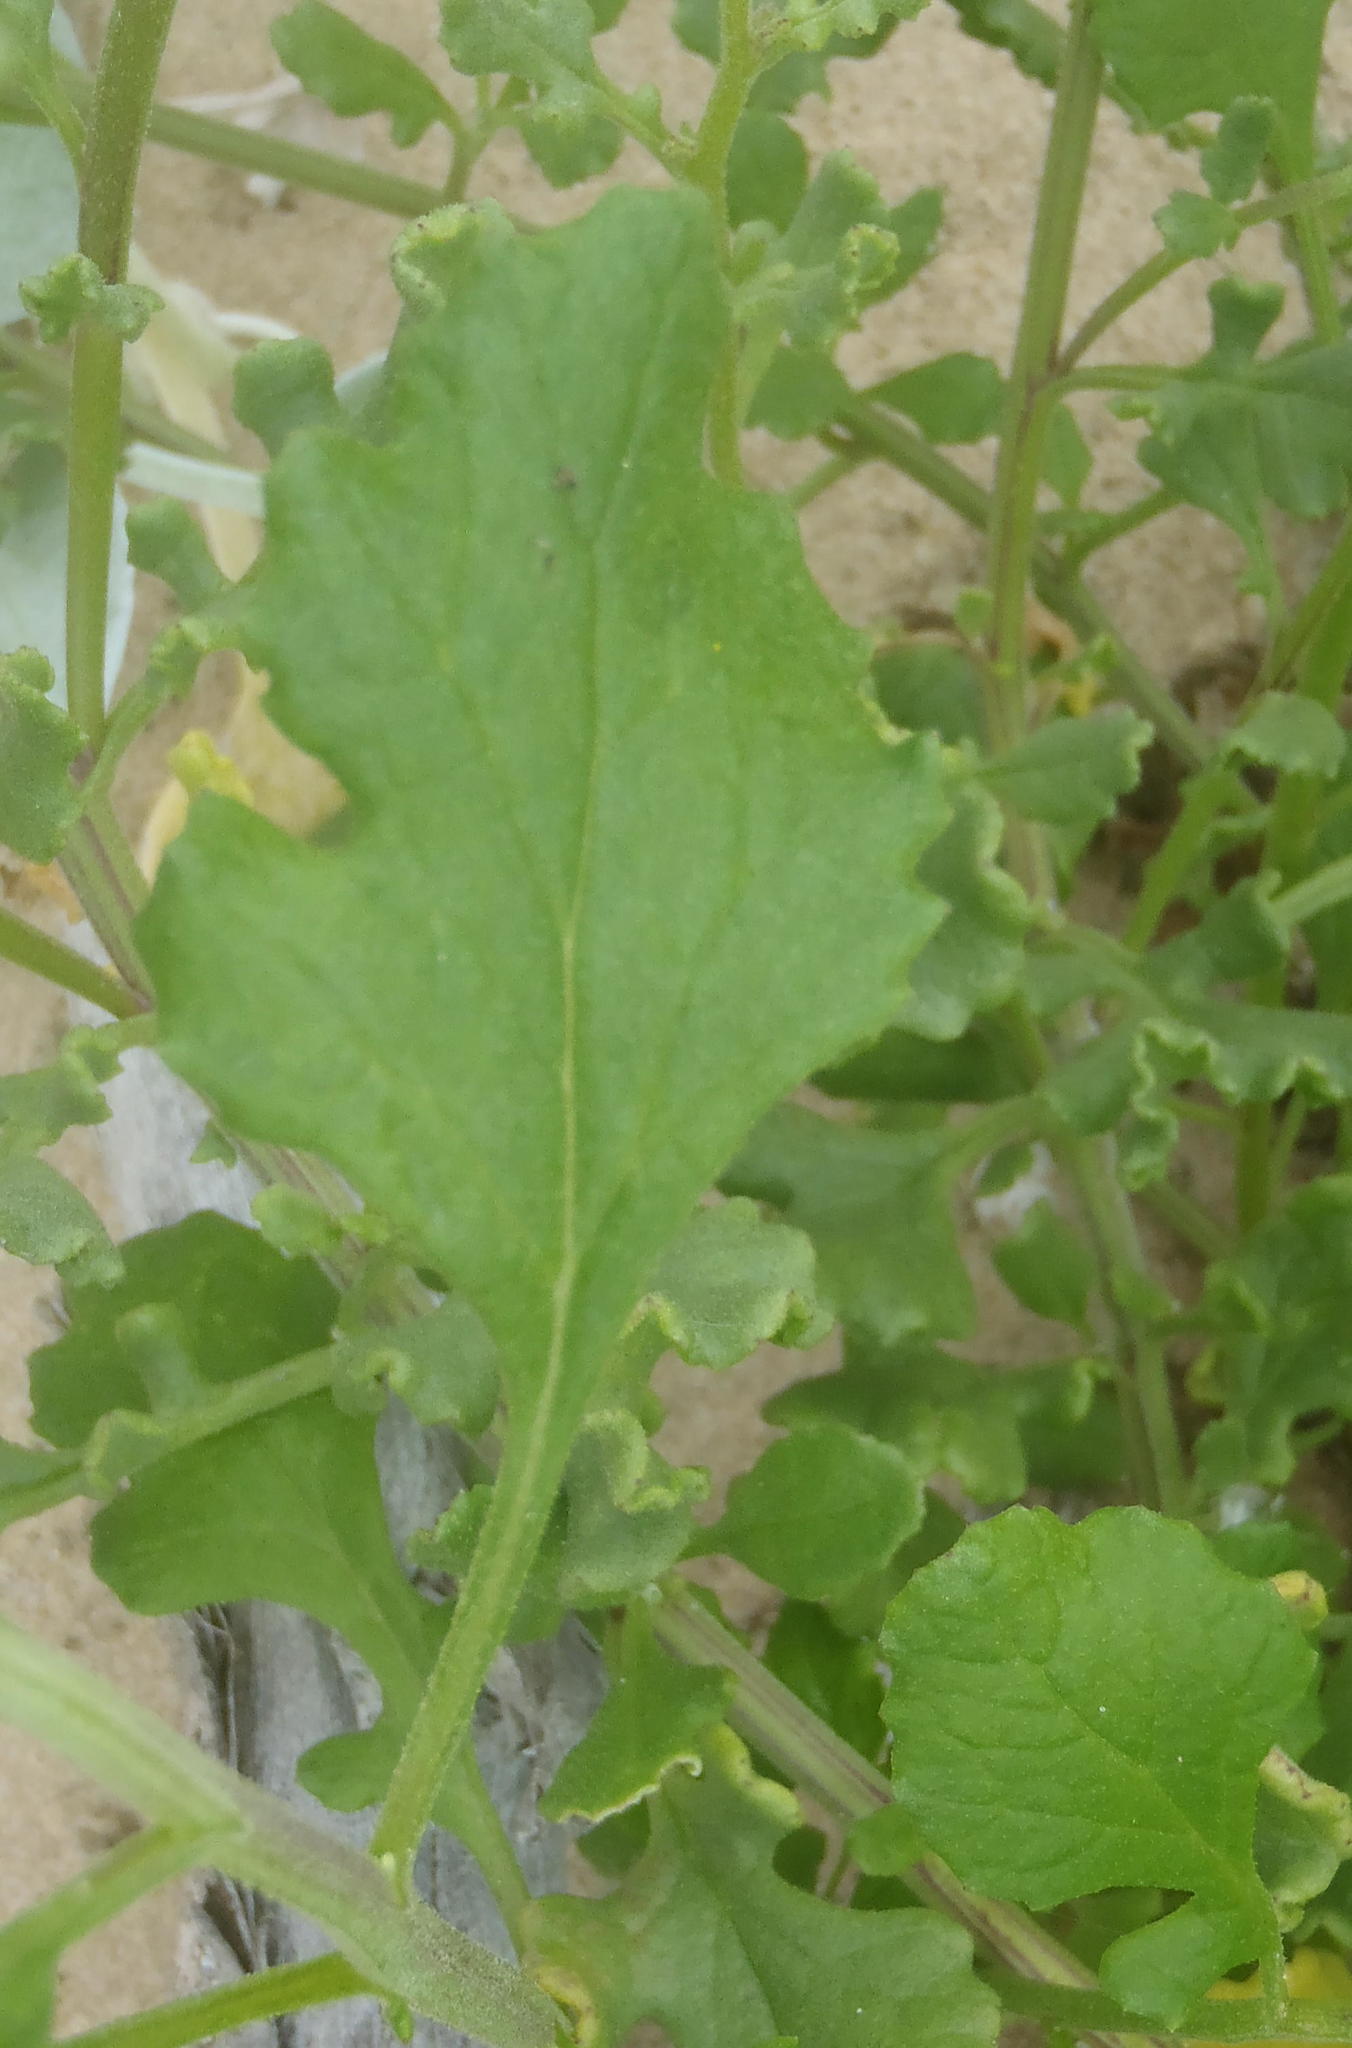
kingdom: Plantae
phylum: Tracheophyta
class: Magnoliopsida
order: Asterales
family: Asteraceae
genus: Senecio
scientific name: Senecio elegans
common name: Purple groundsel
